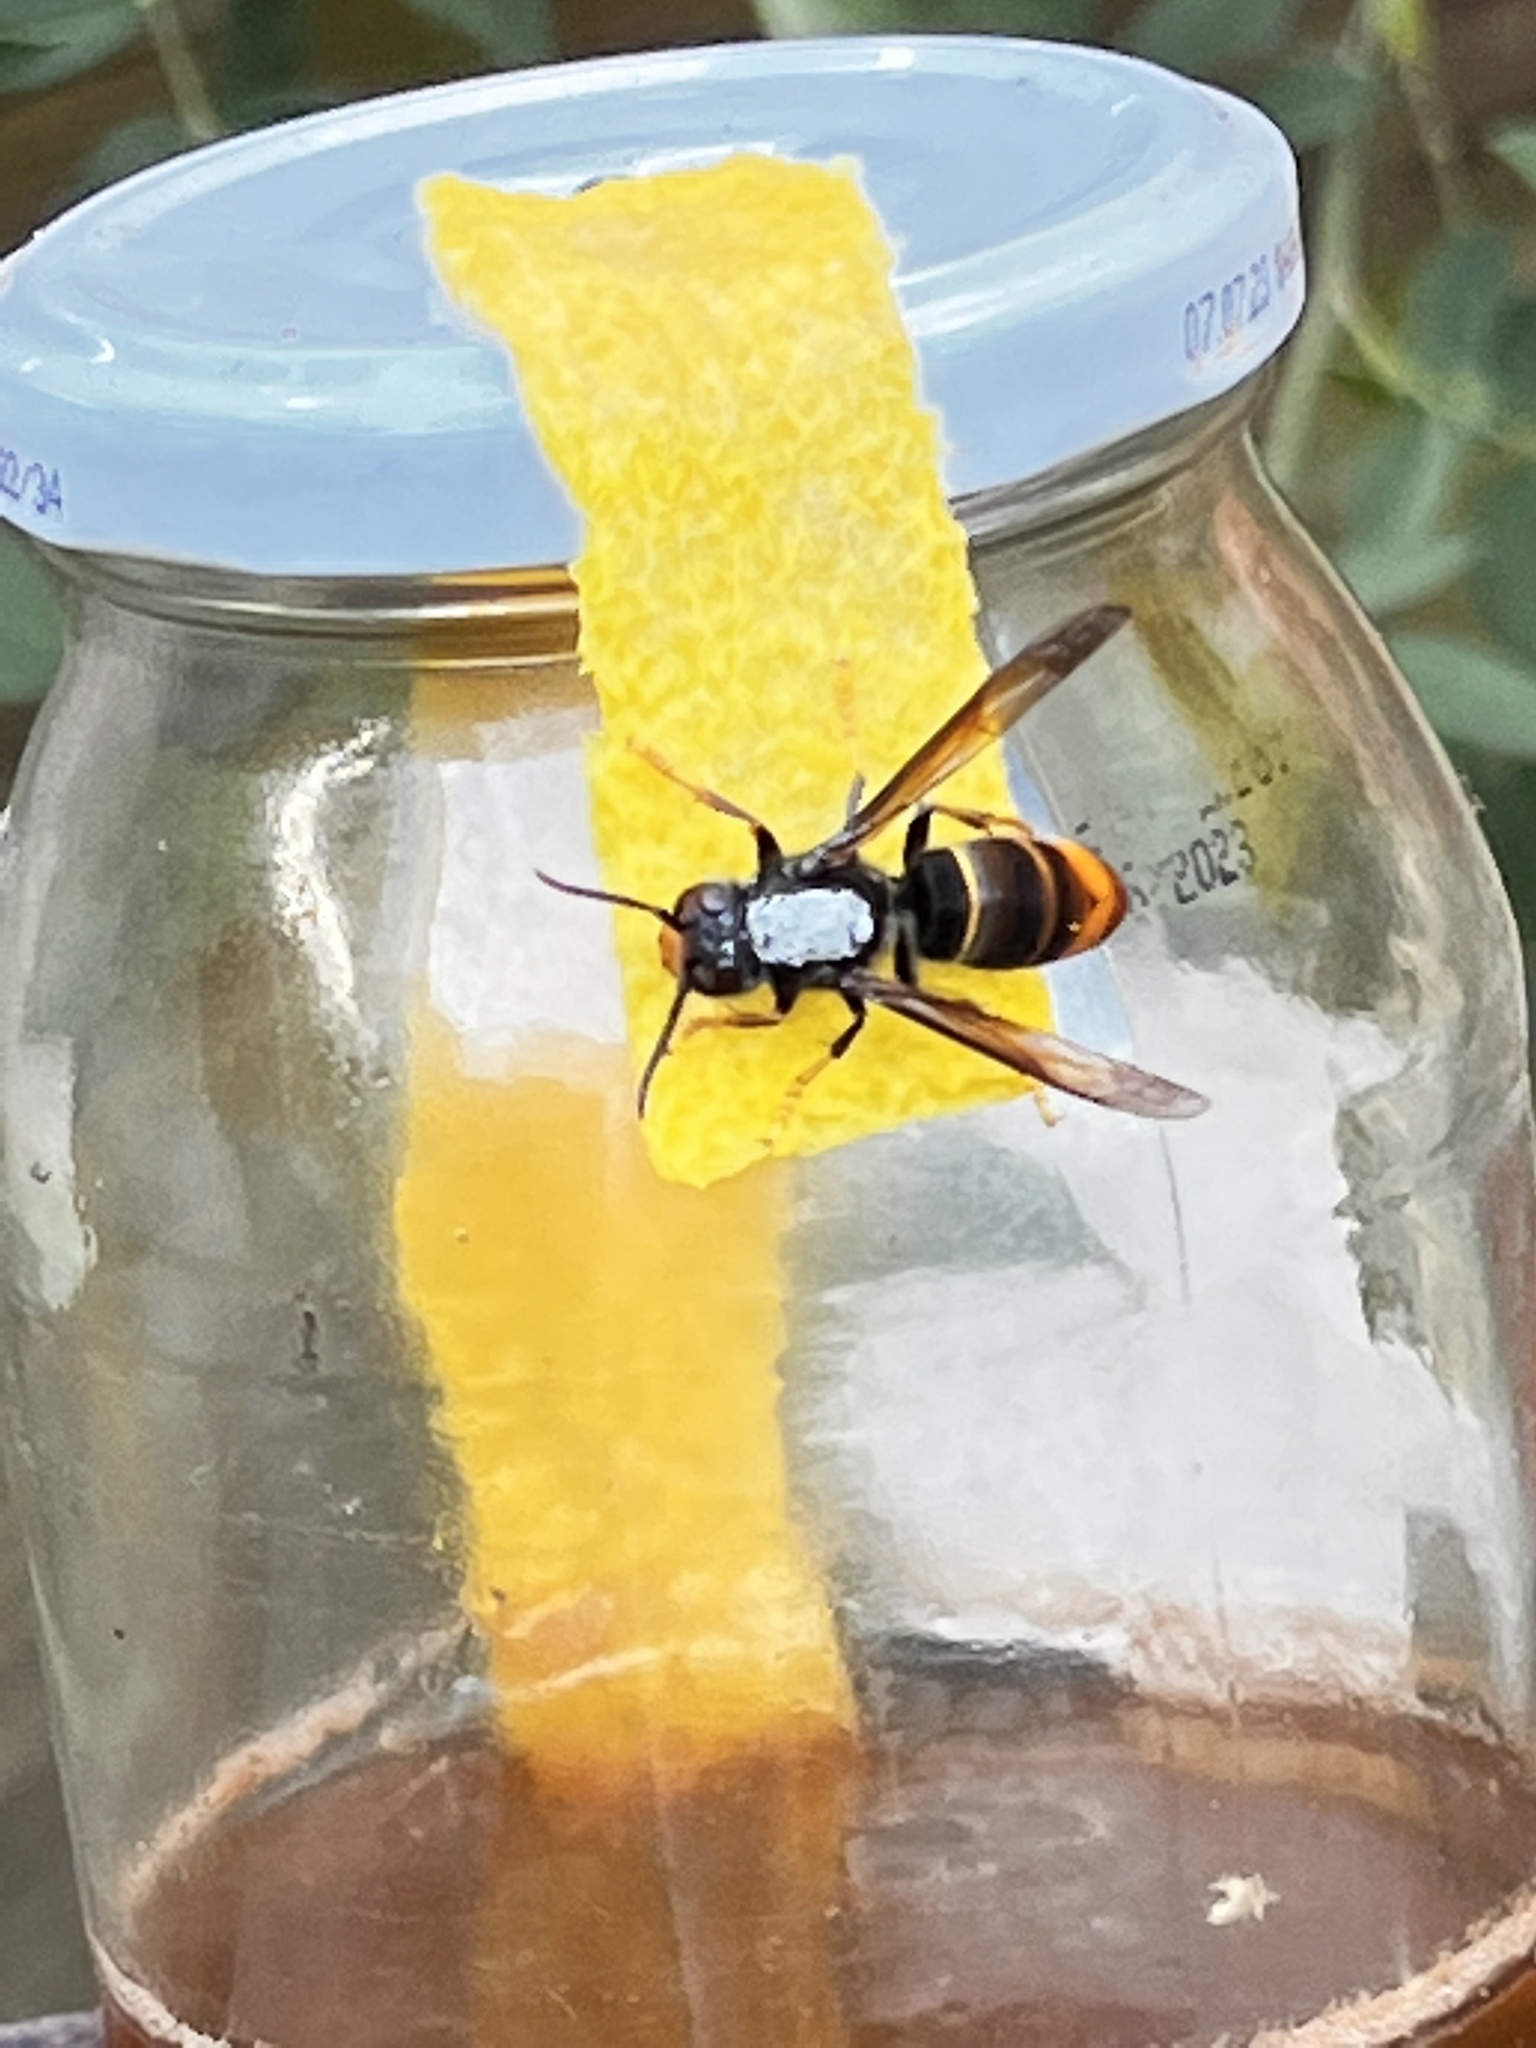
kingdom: Animalia
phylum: Arthropoda
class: Insecta
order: Hymenoptera
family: Vespidae
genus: Vespa
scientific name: Vespa velutina
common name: Asian hornet
